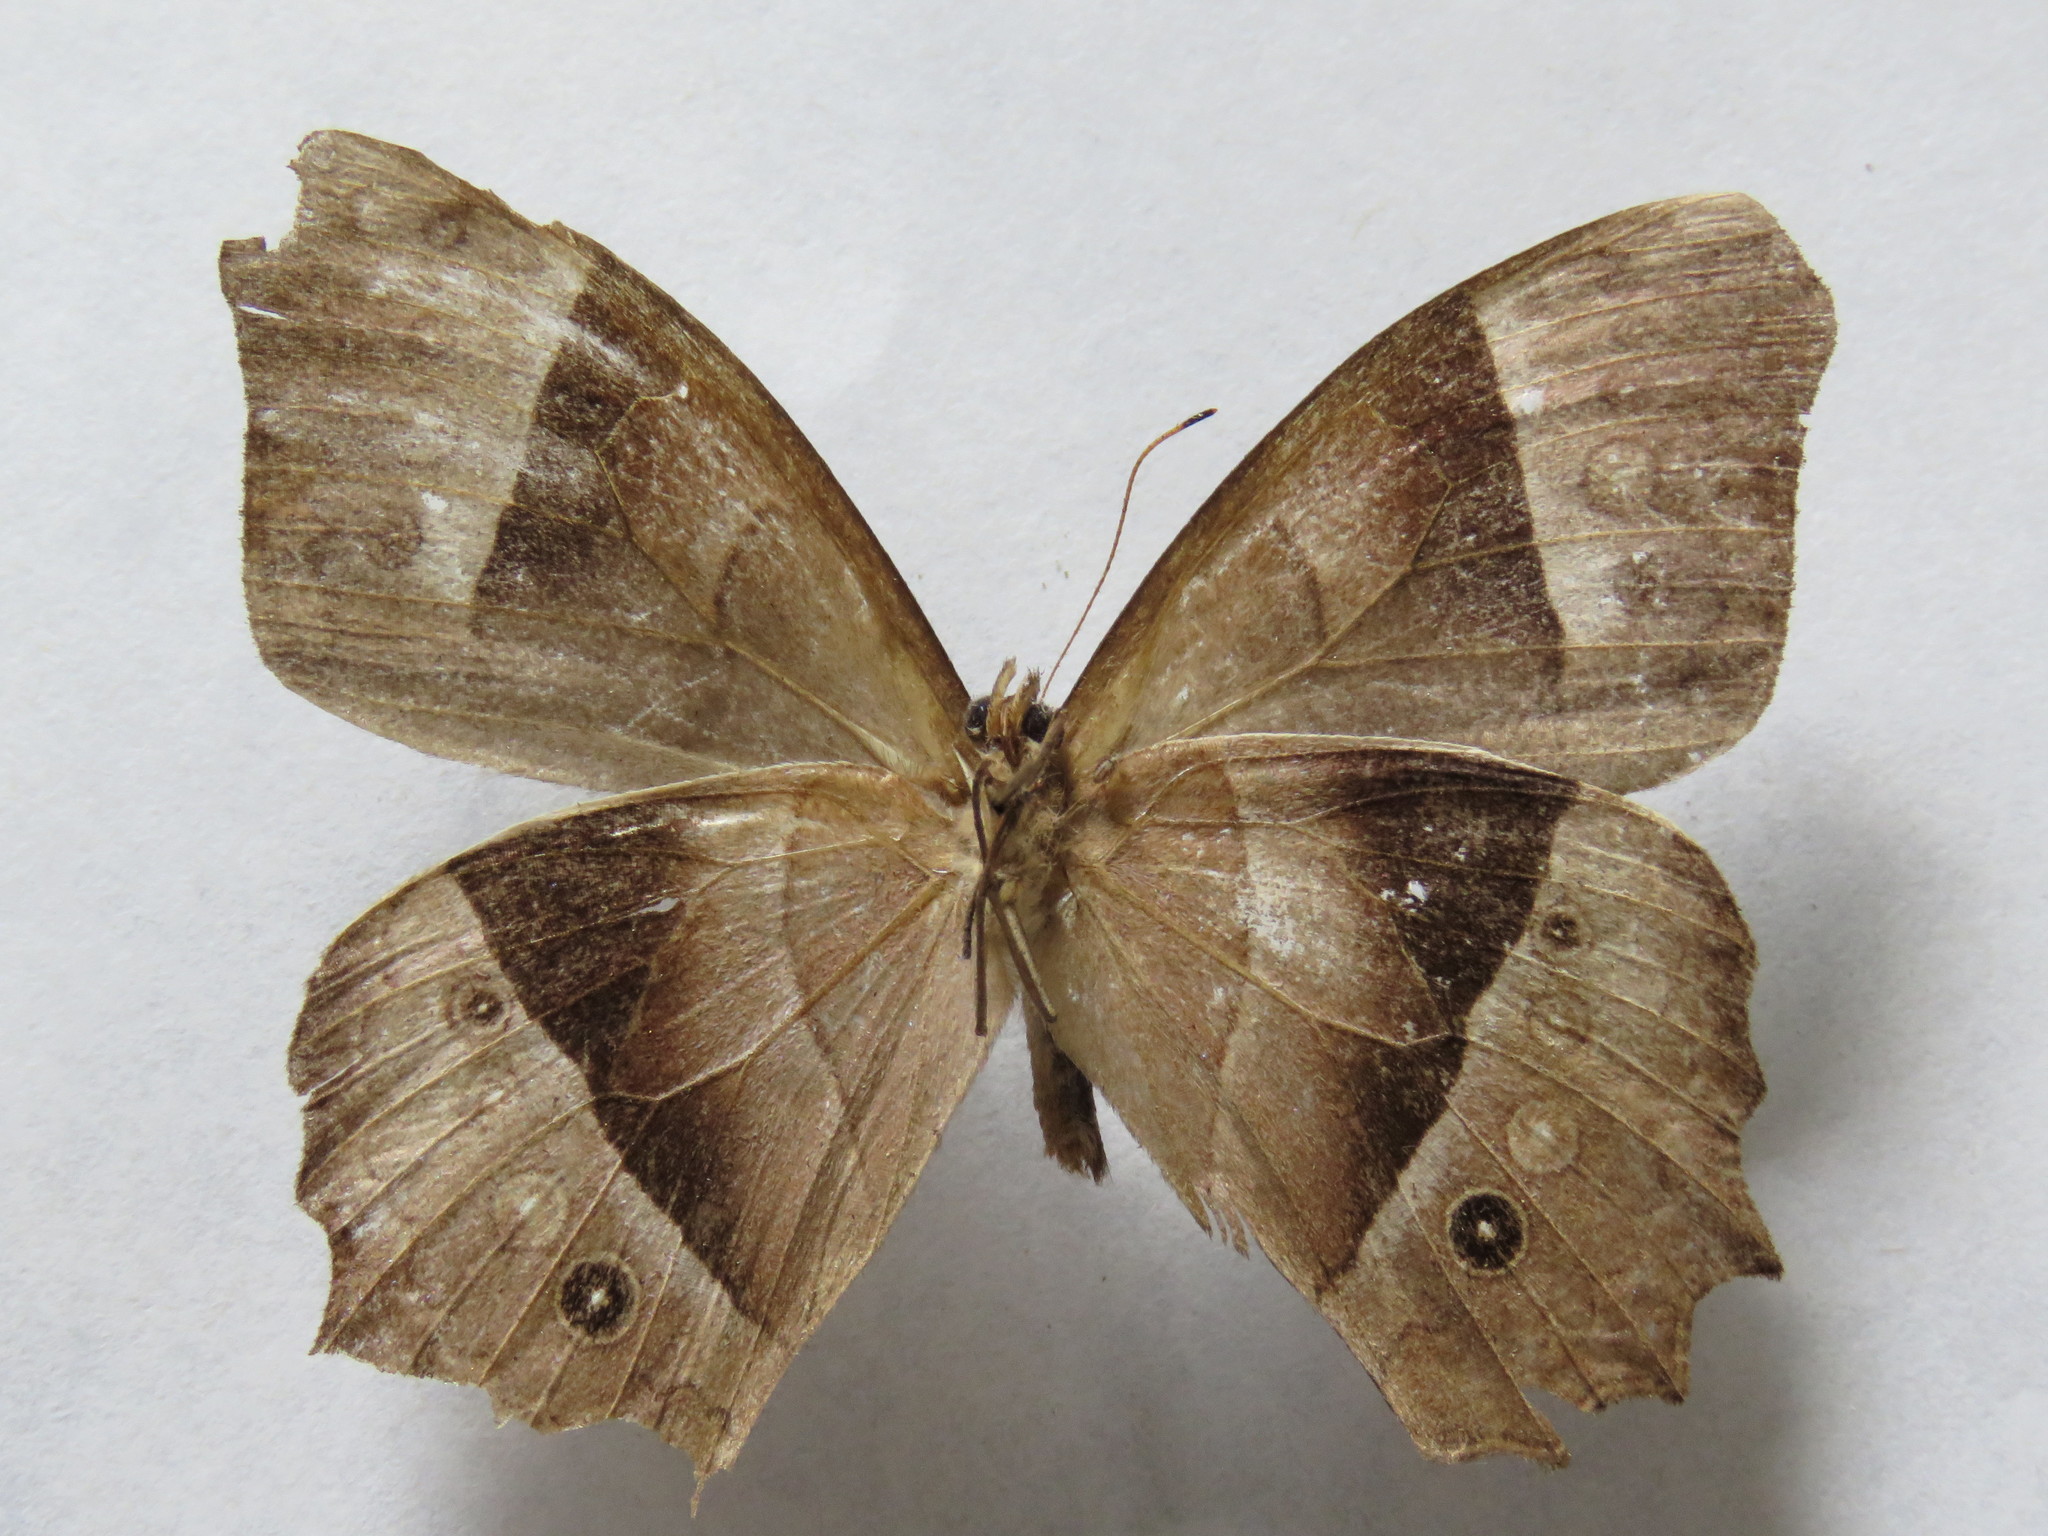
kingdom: Animalia
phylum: Arthropoda
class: Insecta
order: Lepidoptera
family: Nymphalidae
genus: Taygetis
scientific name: Taygetis andromeda
